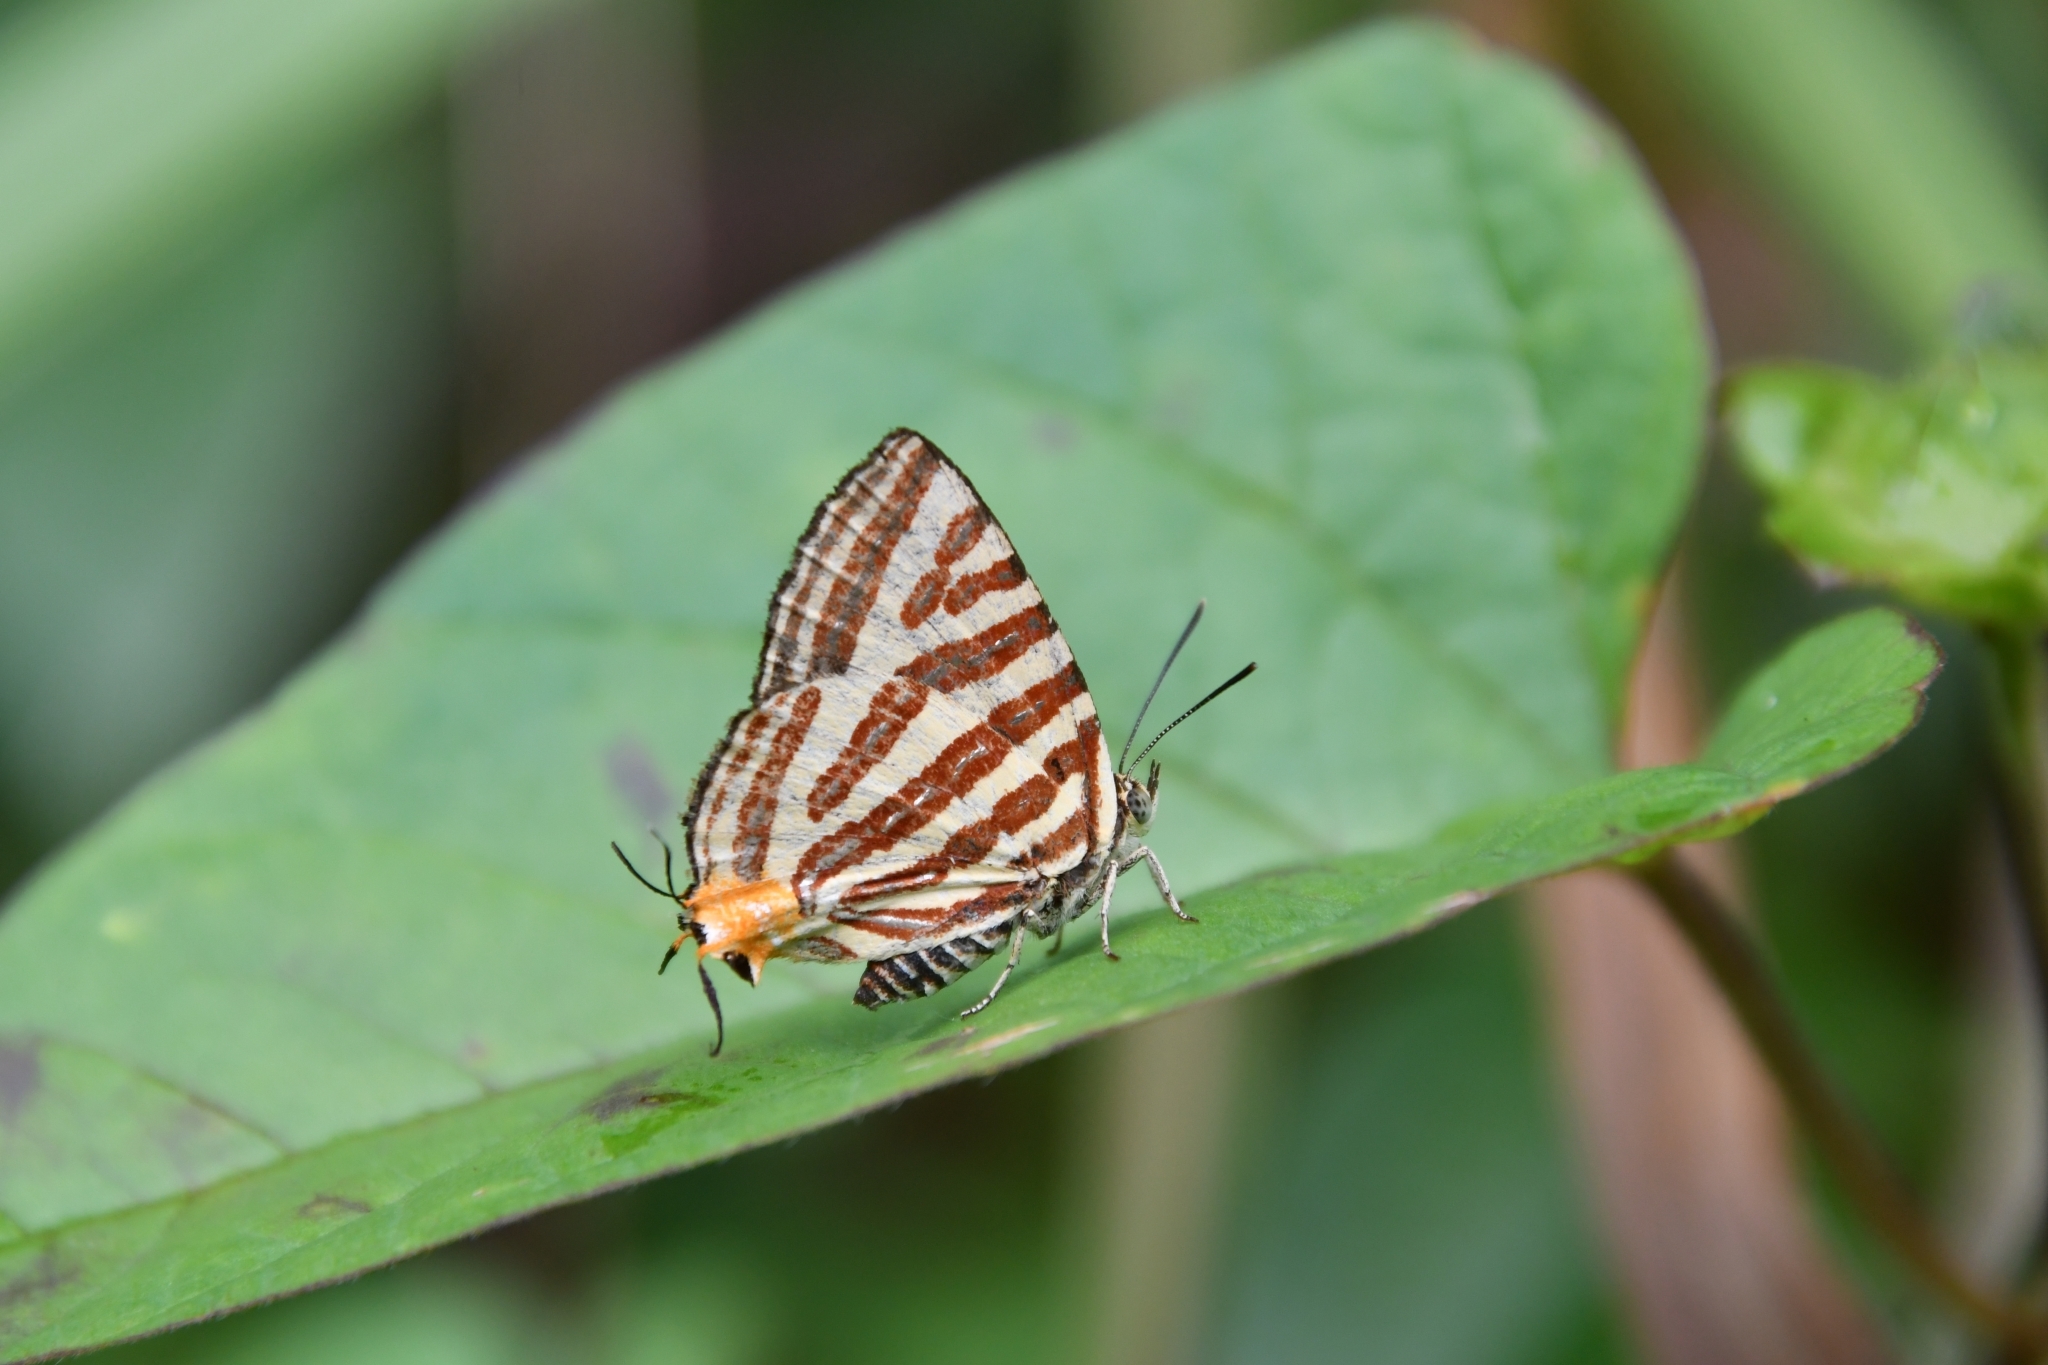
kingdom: Animalia
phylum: Arthropoda
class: Insecta
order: Lepidoptera
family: Lycaenidae
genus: Cigaritis
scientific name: Cigaritis lohita
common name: Long-banded silverline
